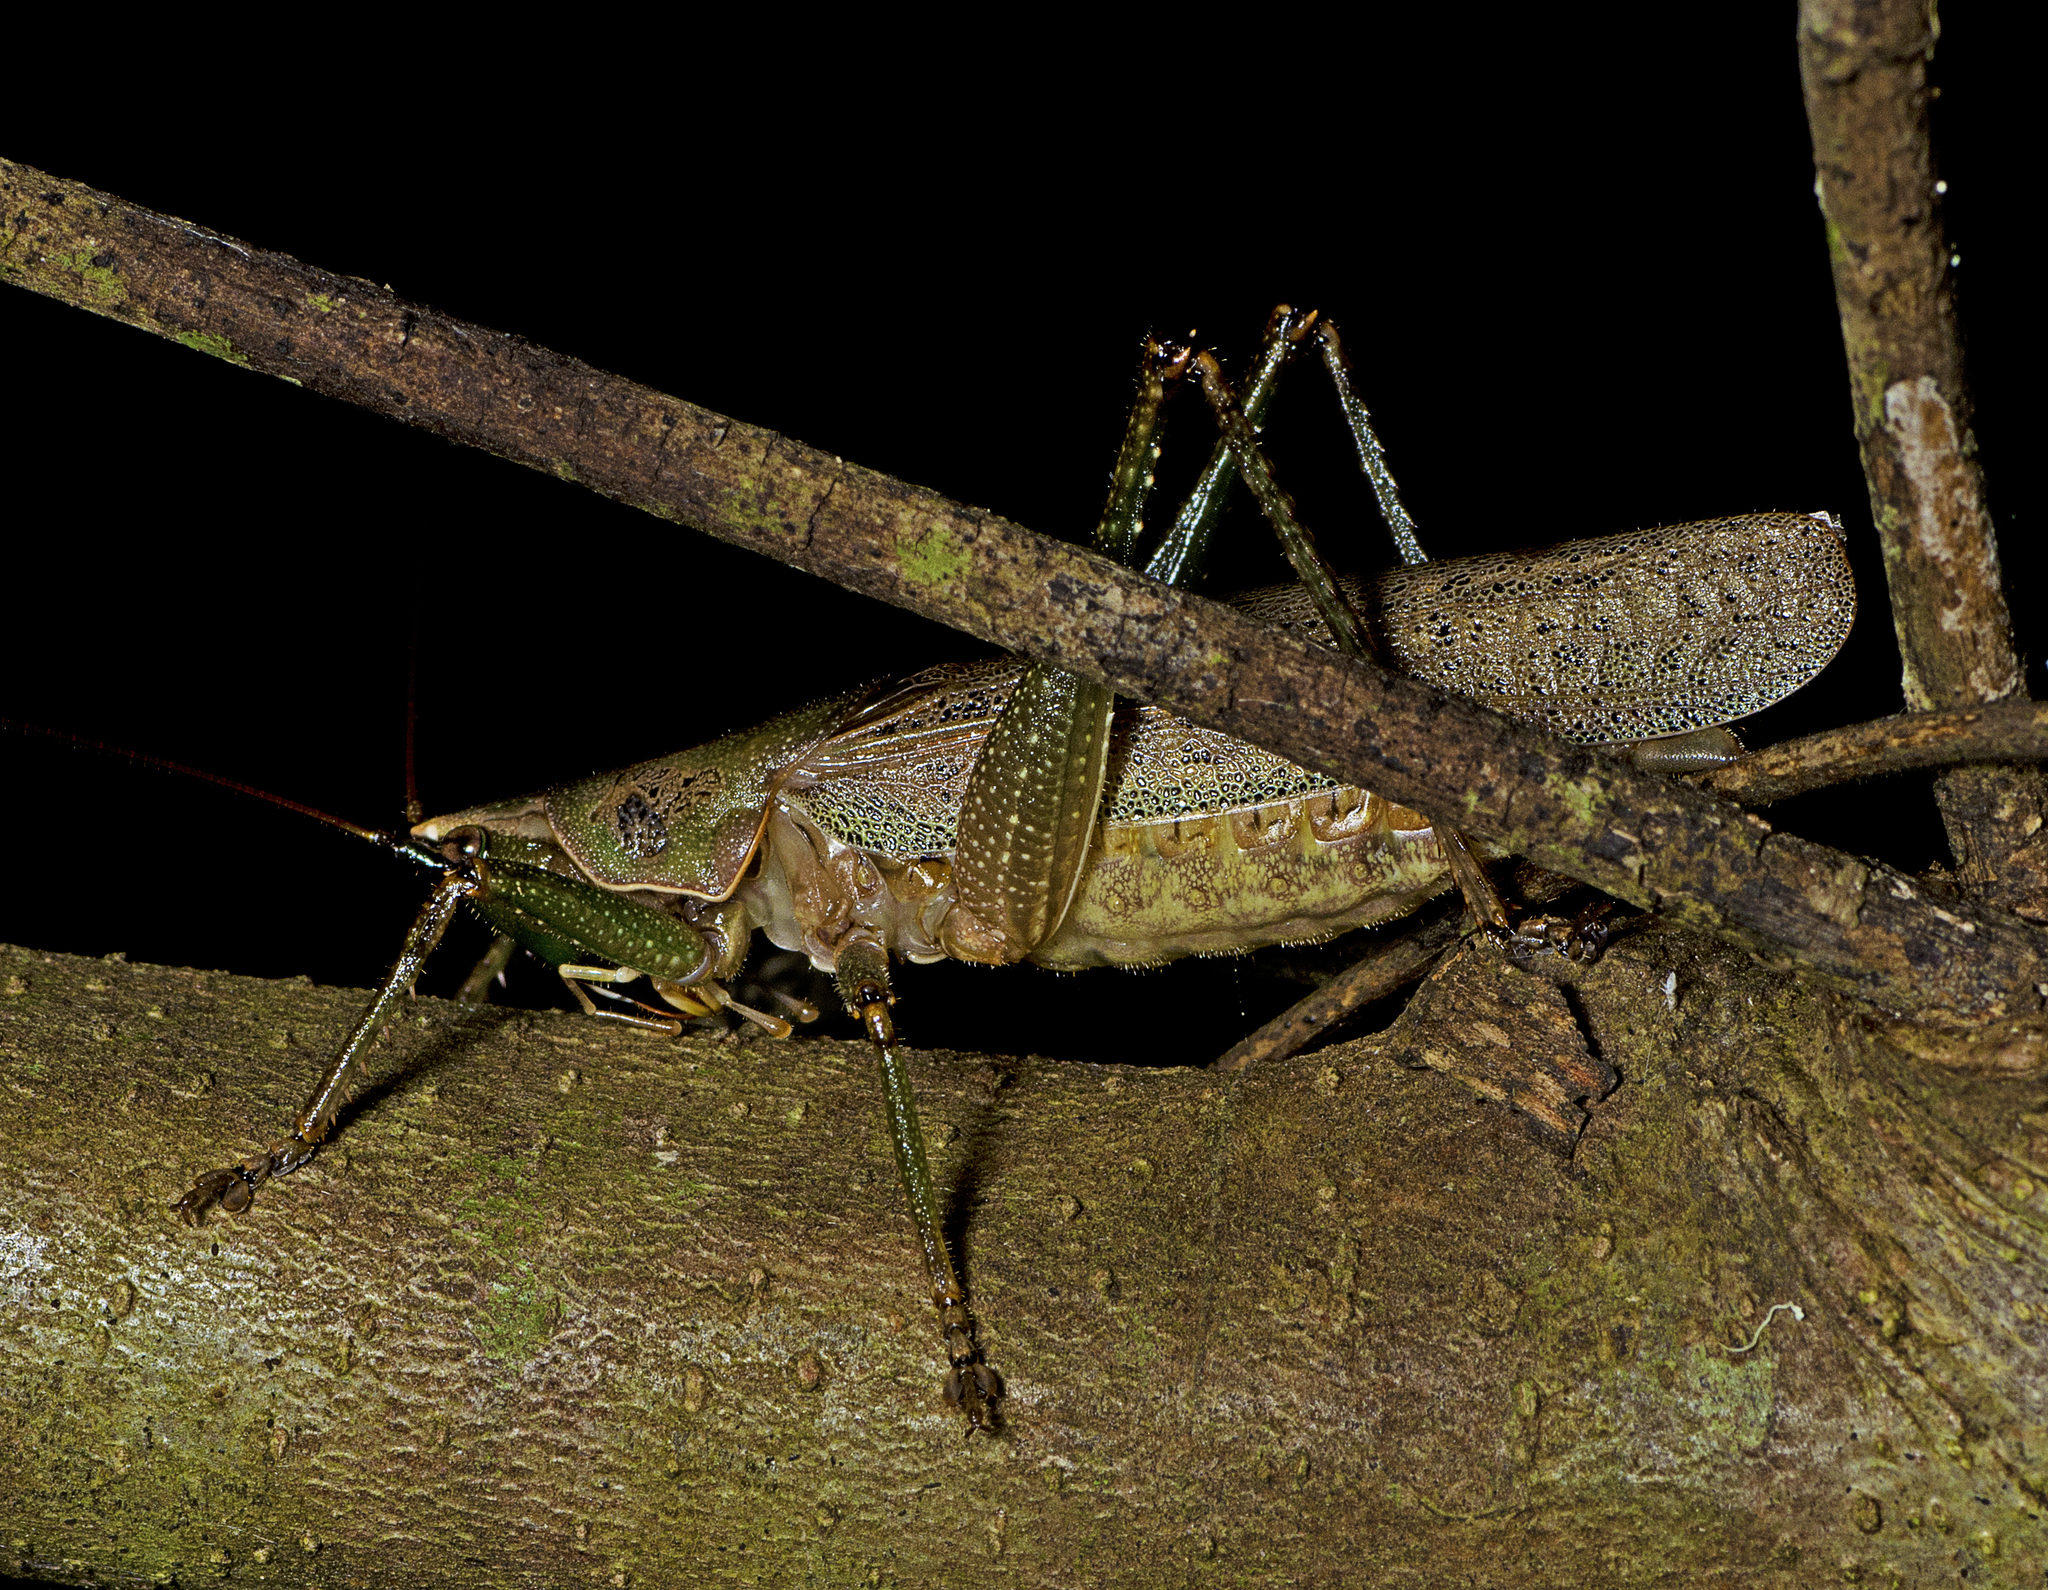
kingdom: Animalia
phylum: Arthropoda
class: Insecta
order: Orthoptera
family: Tettigoniidae
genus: Austrosalomona
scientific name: Austrosalomona falcata
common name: Olive-green coastal katydid
